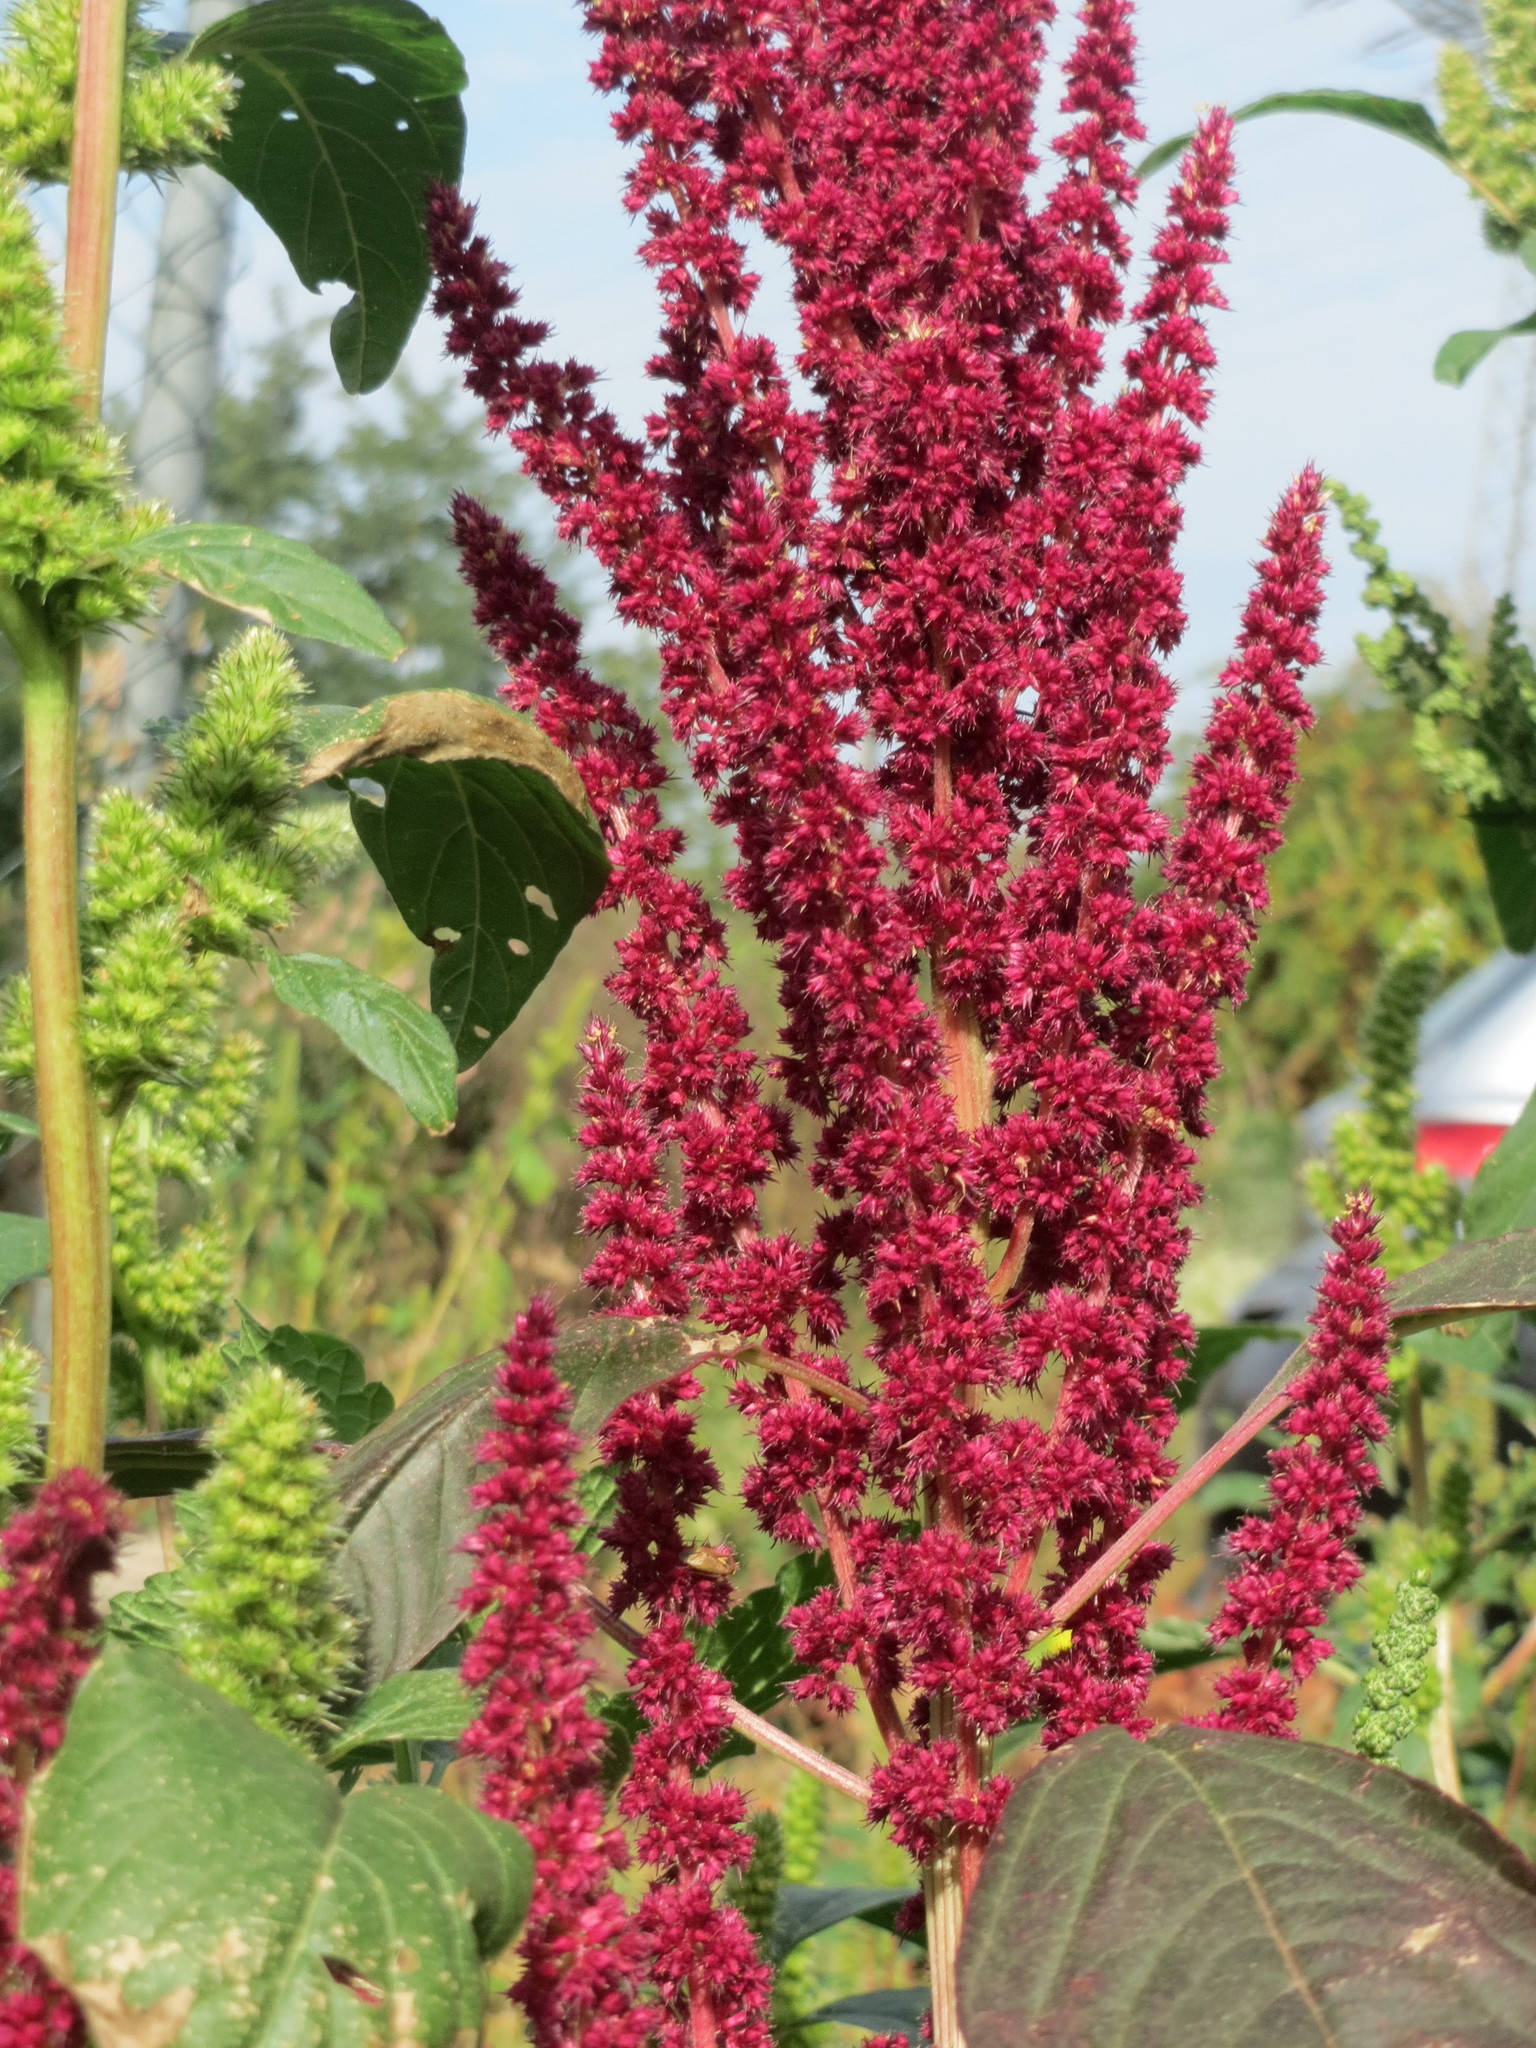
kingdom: Plantae
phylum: Tracheophyta
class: Magnoliopsida
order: Caryophyllales
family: Amaranthaceae
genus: Amaranthus
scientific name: Amaranthus cruentus
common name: Purple amaranth
